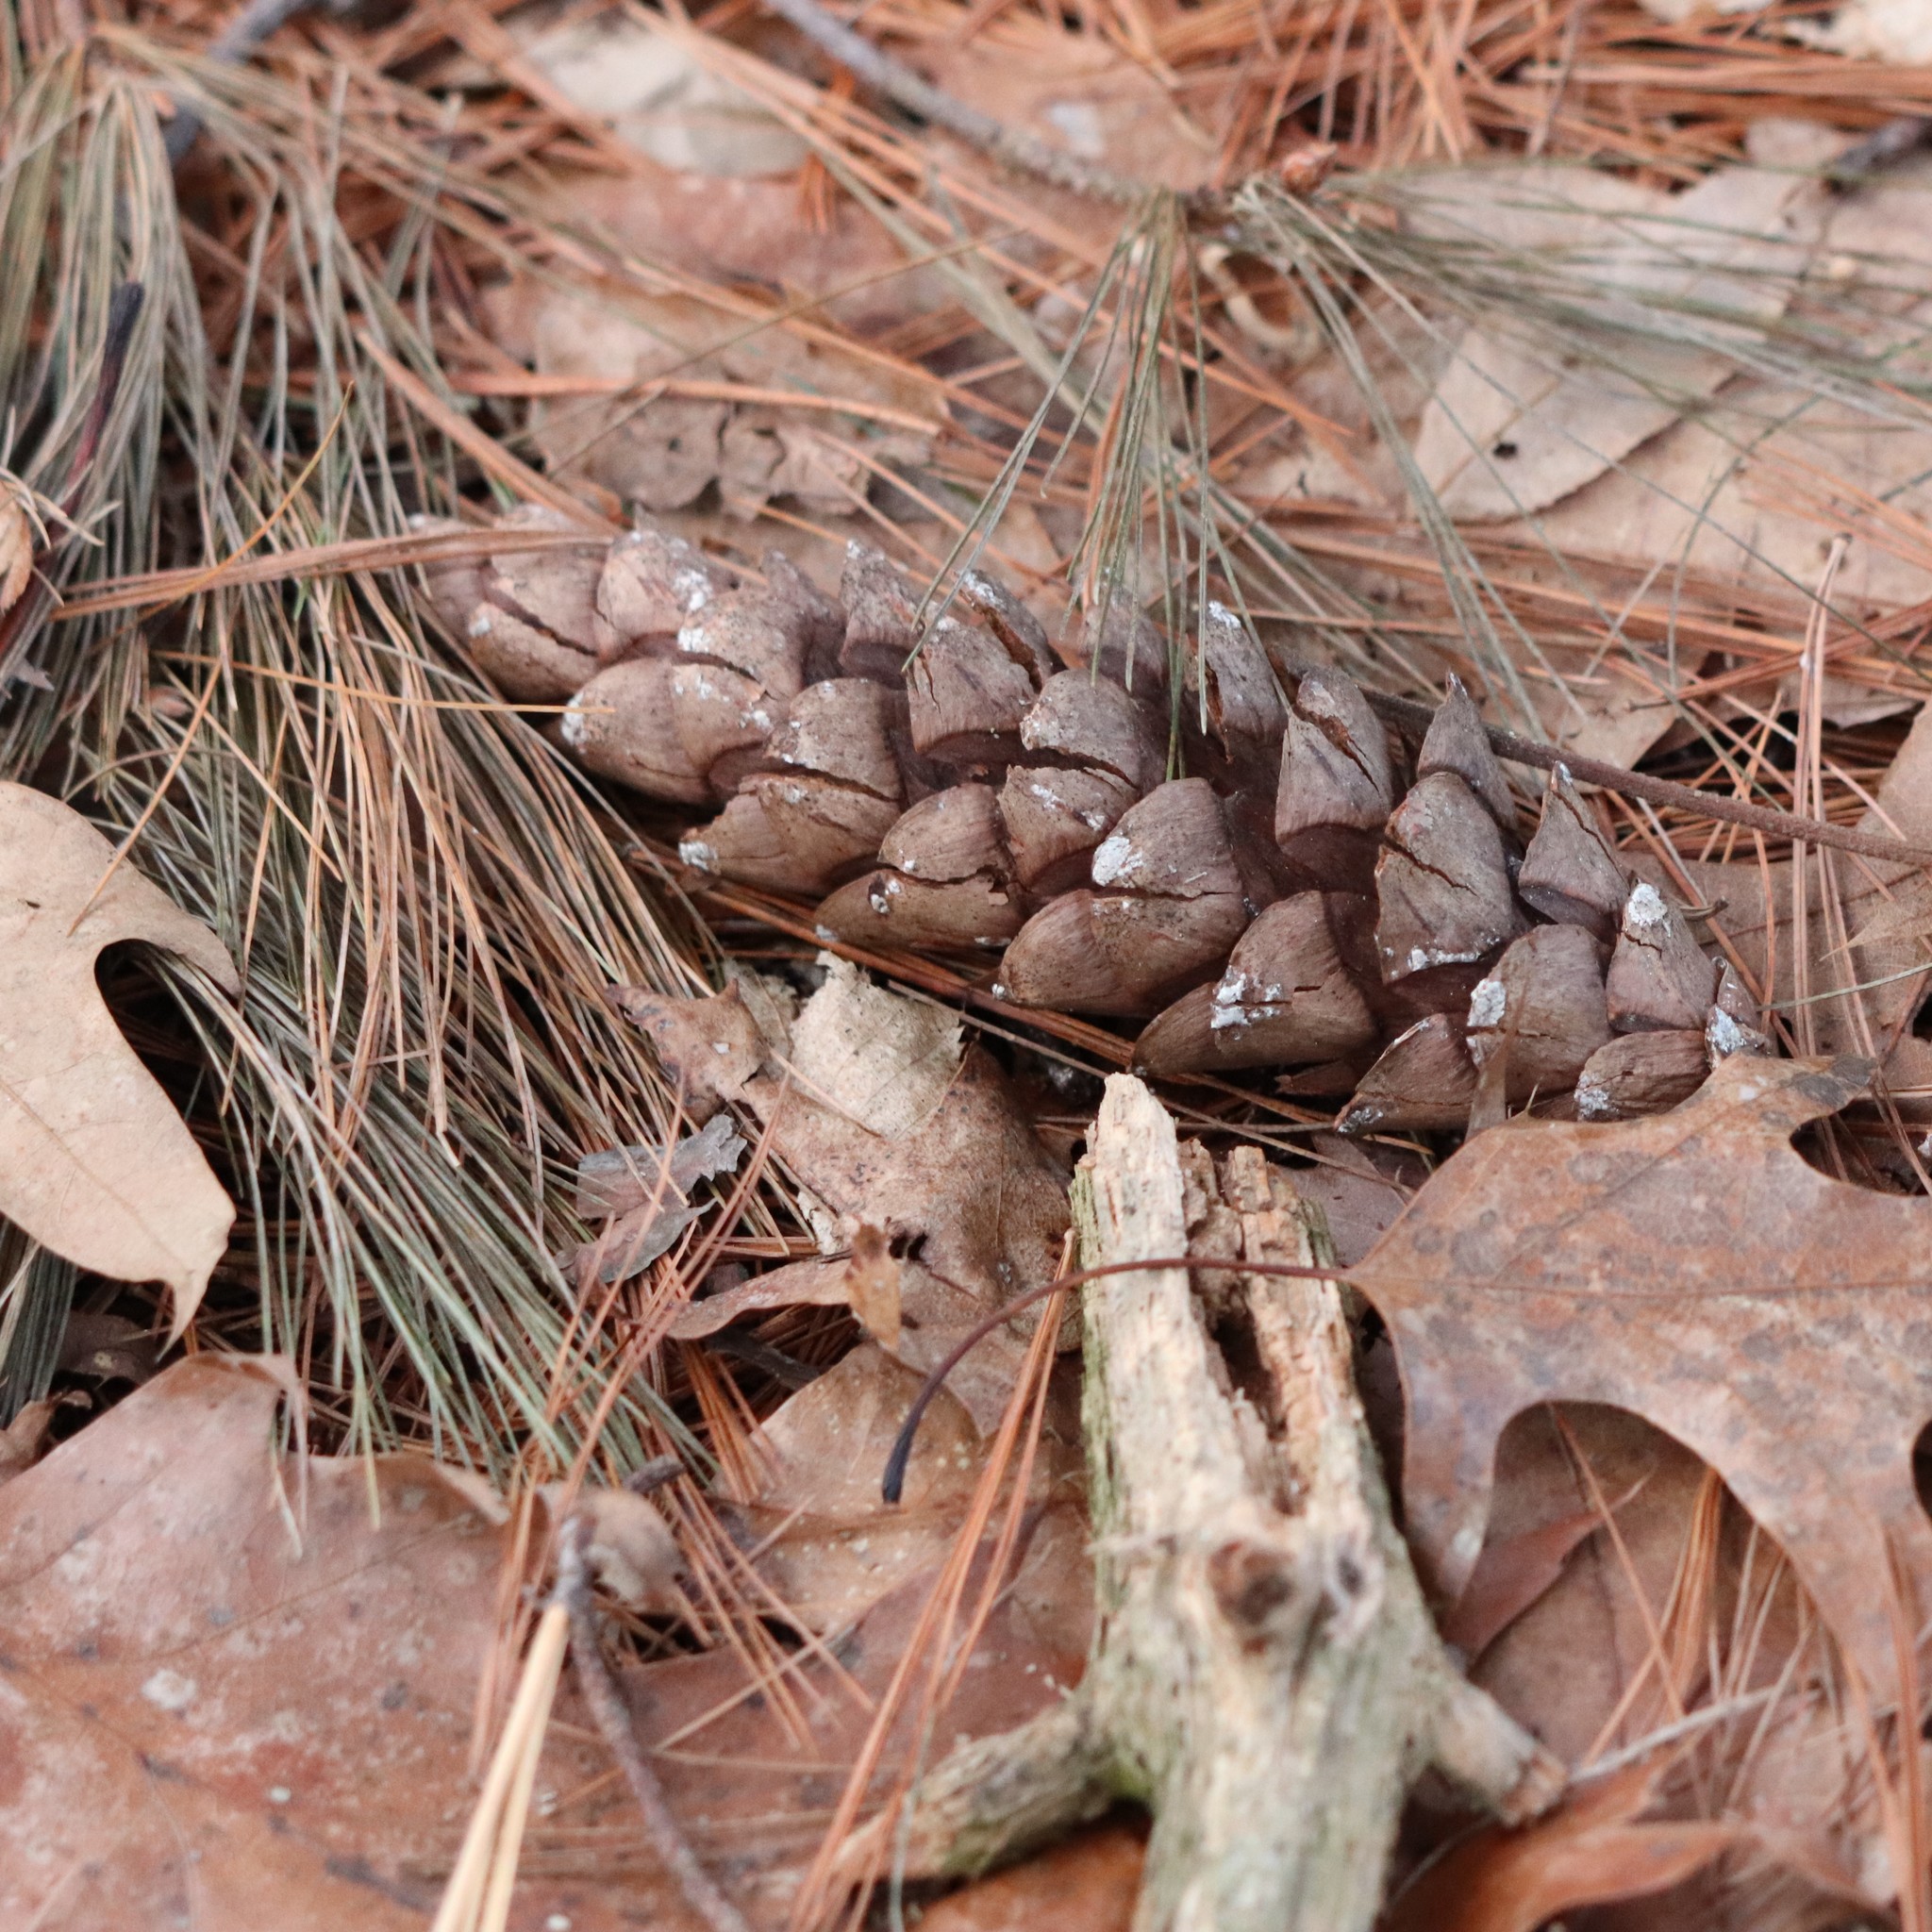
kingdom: Plantae
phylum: Tracheophyta
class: Pinopsida
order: Pinales
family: Pinaceae
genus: Pinus
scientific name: Pinus strobus
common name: Weymouth pine
